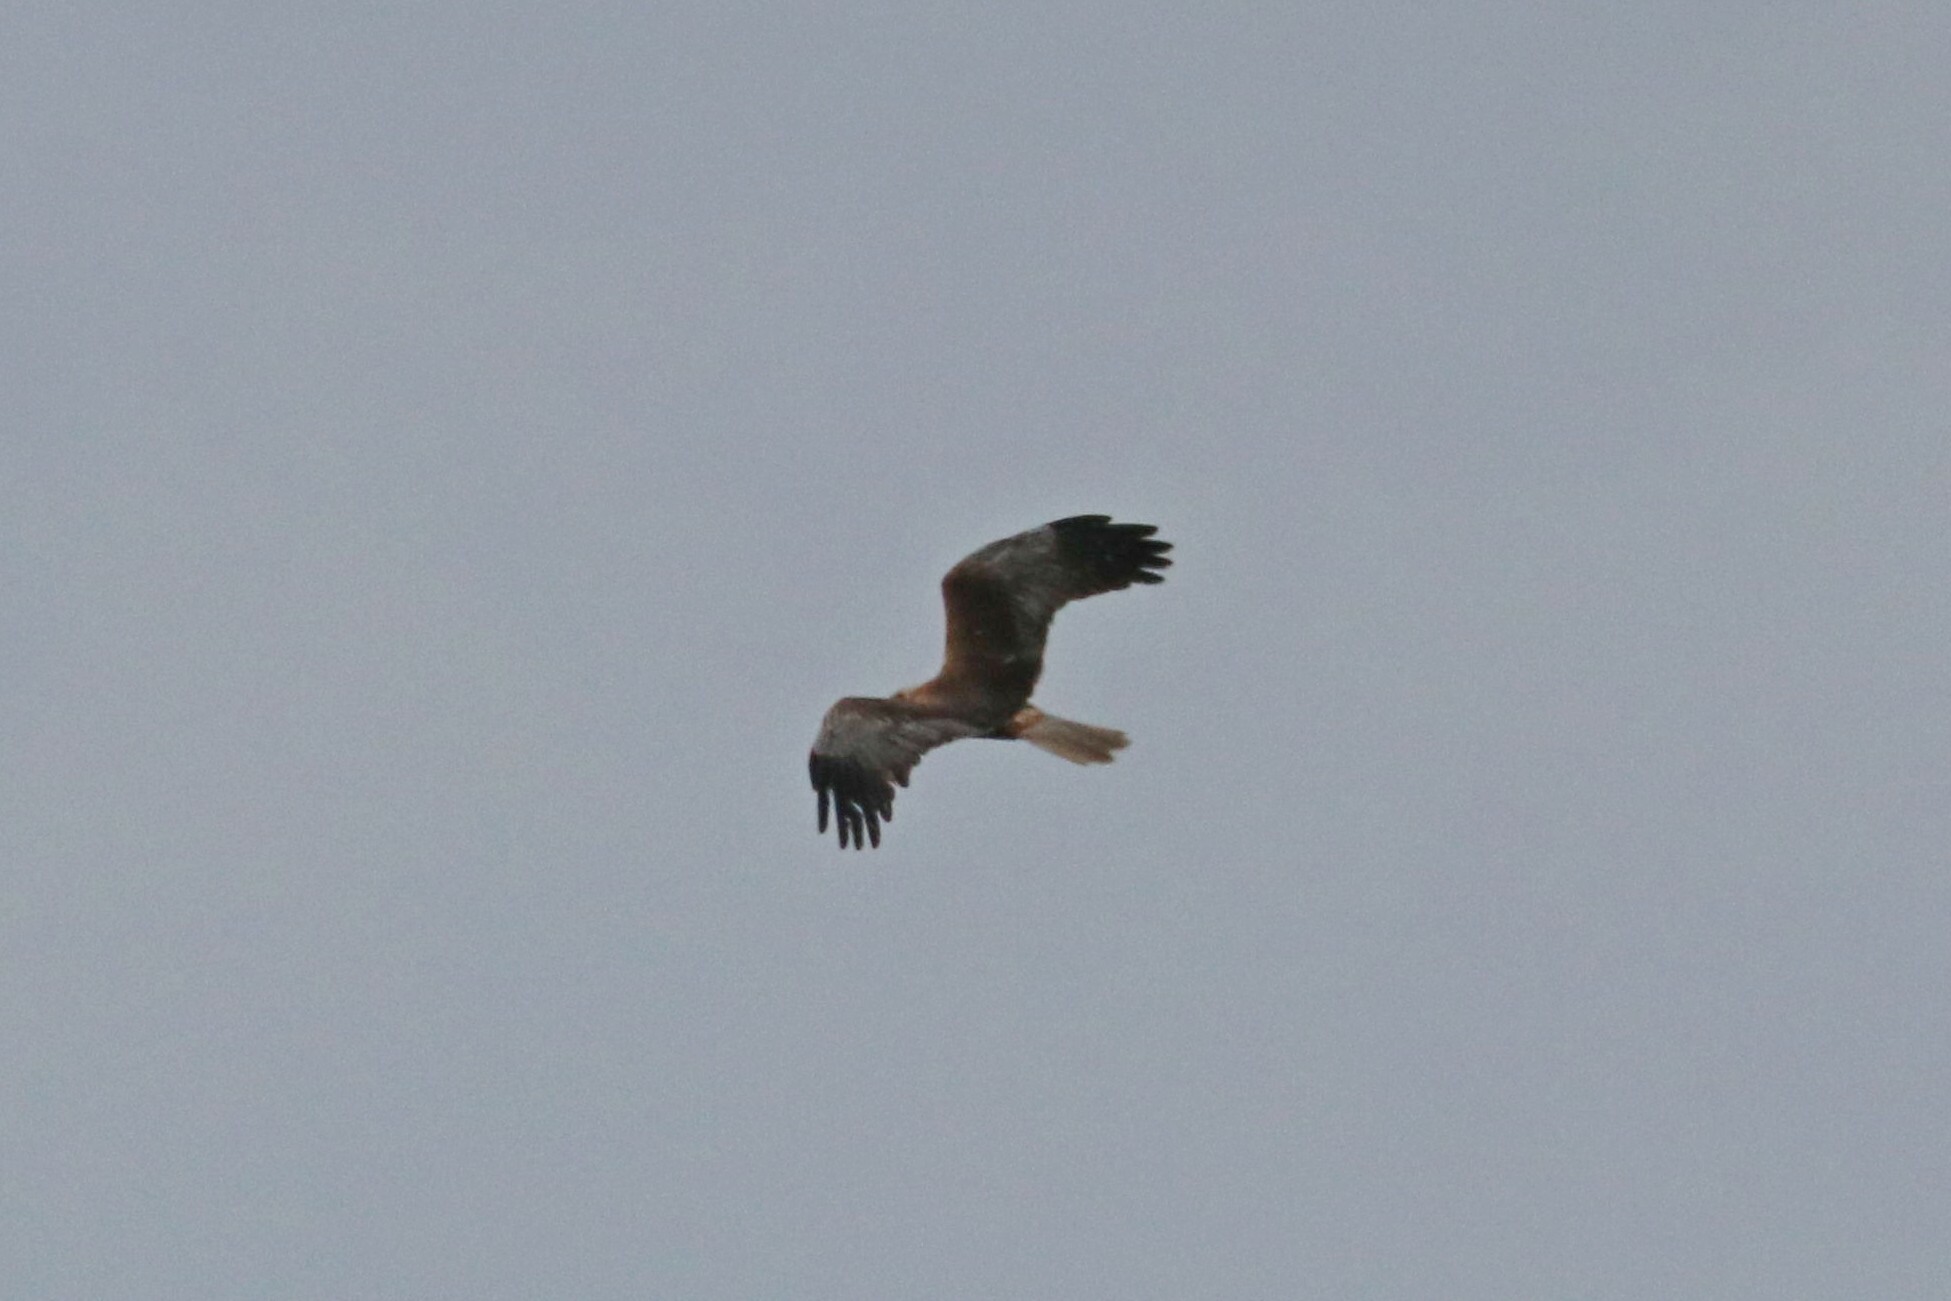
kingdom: Animalia
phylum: Chordata
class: Aves
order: Accipitriformes
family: Accipitridae
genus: Circus
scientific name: Circus aeruginosus
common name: Western marsh harrier
